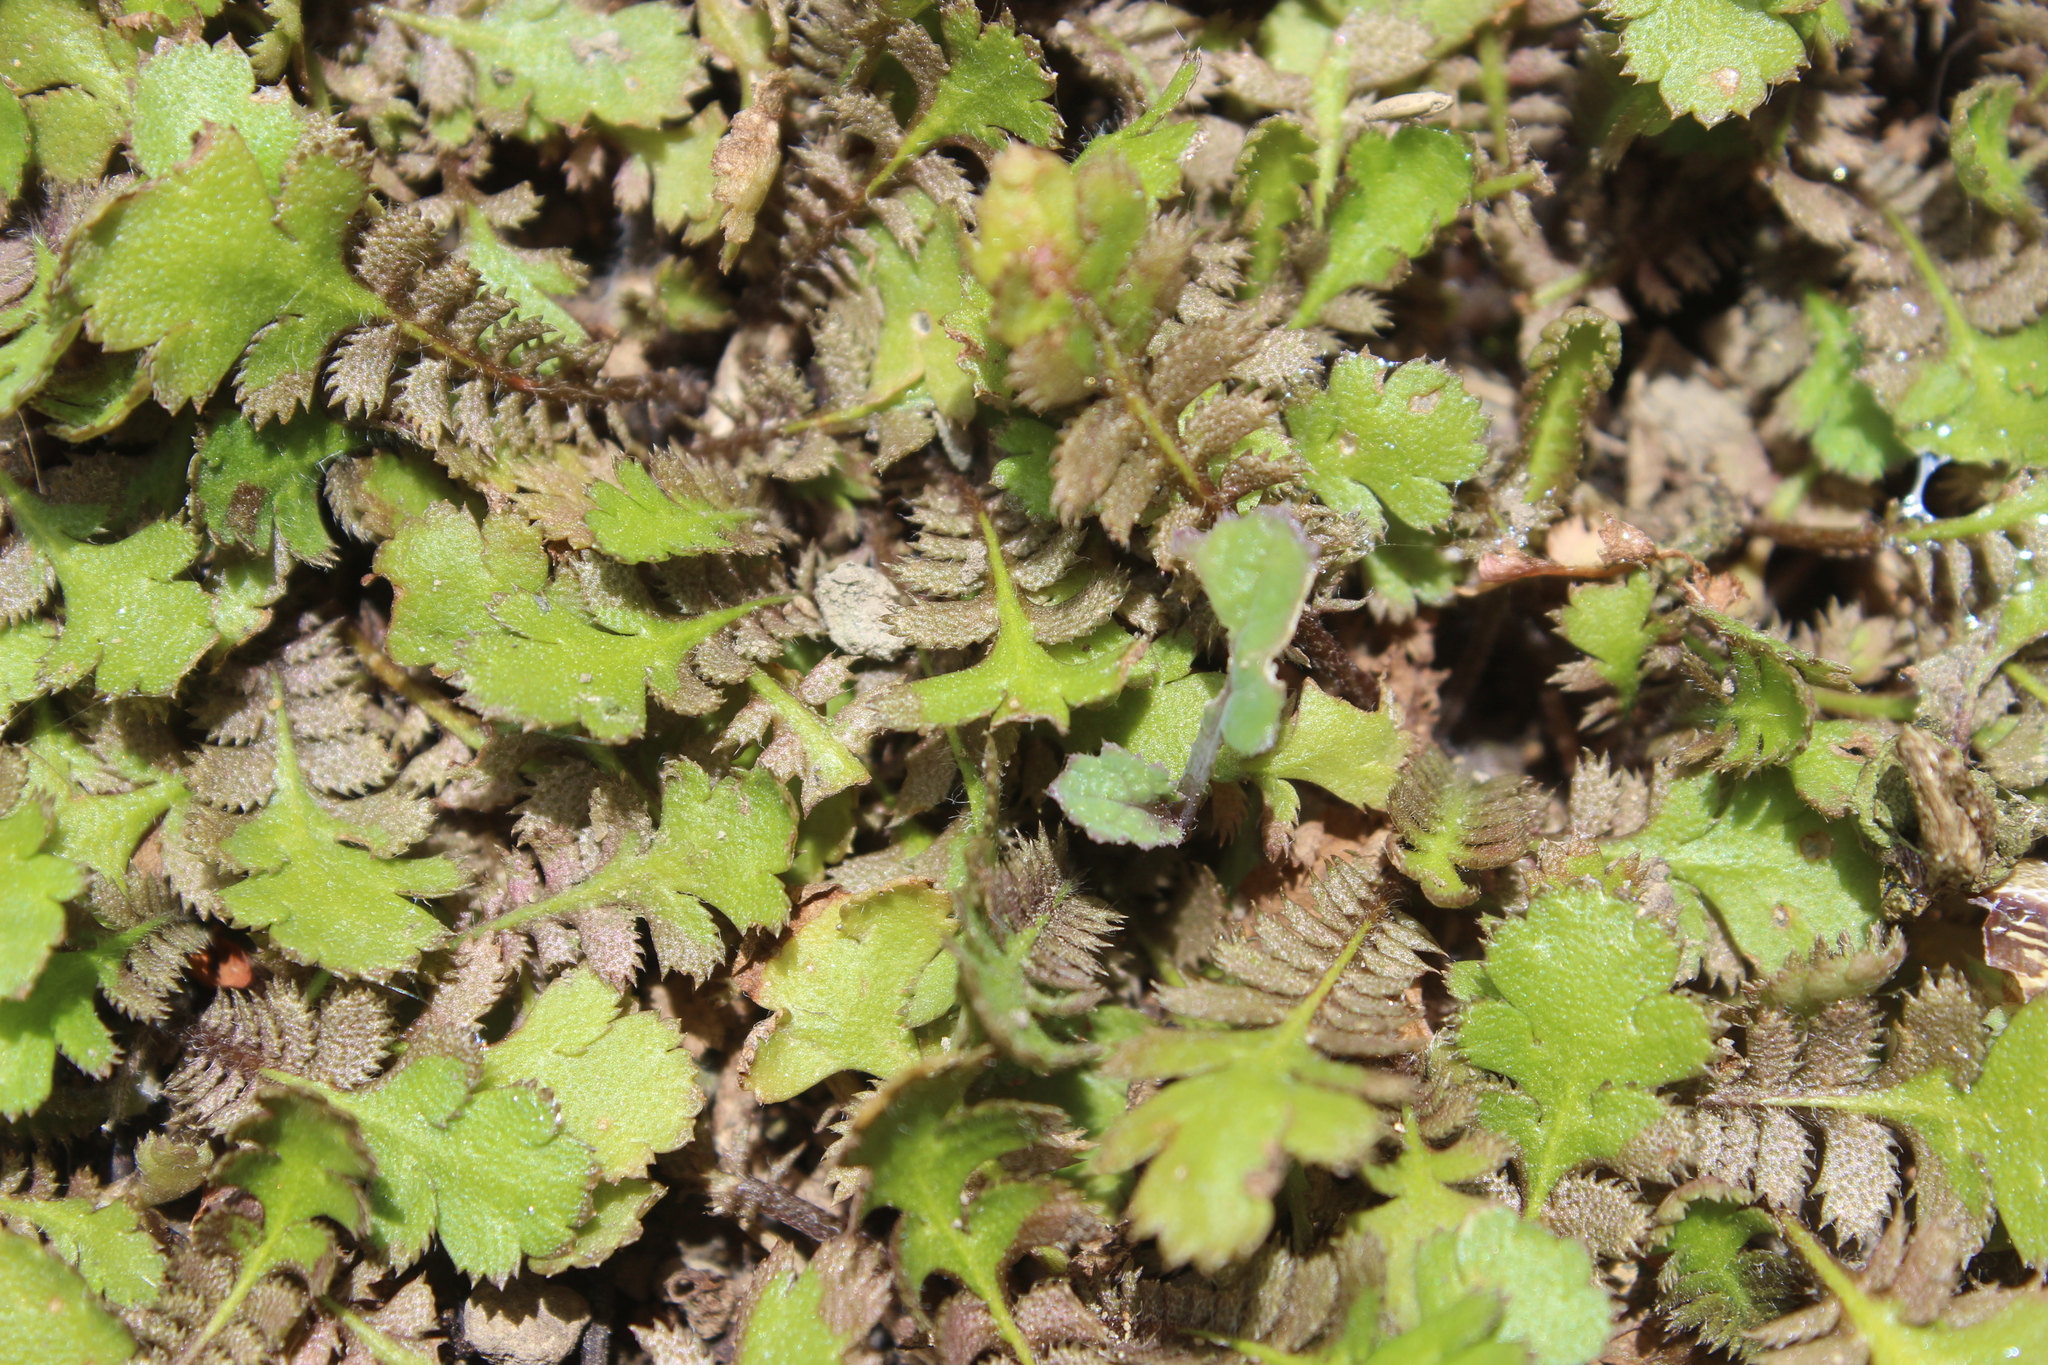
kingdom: Plantae
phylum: Tracheophyta
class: Magnoliopsida
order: Asterales
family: Asteraceae
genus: Leptinella
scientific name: Leptinella squalida
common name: New zealand brass-buttons
